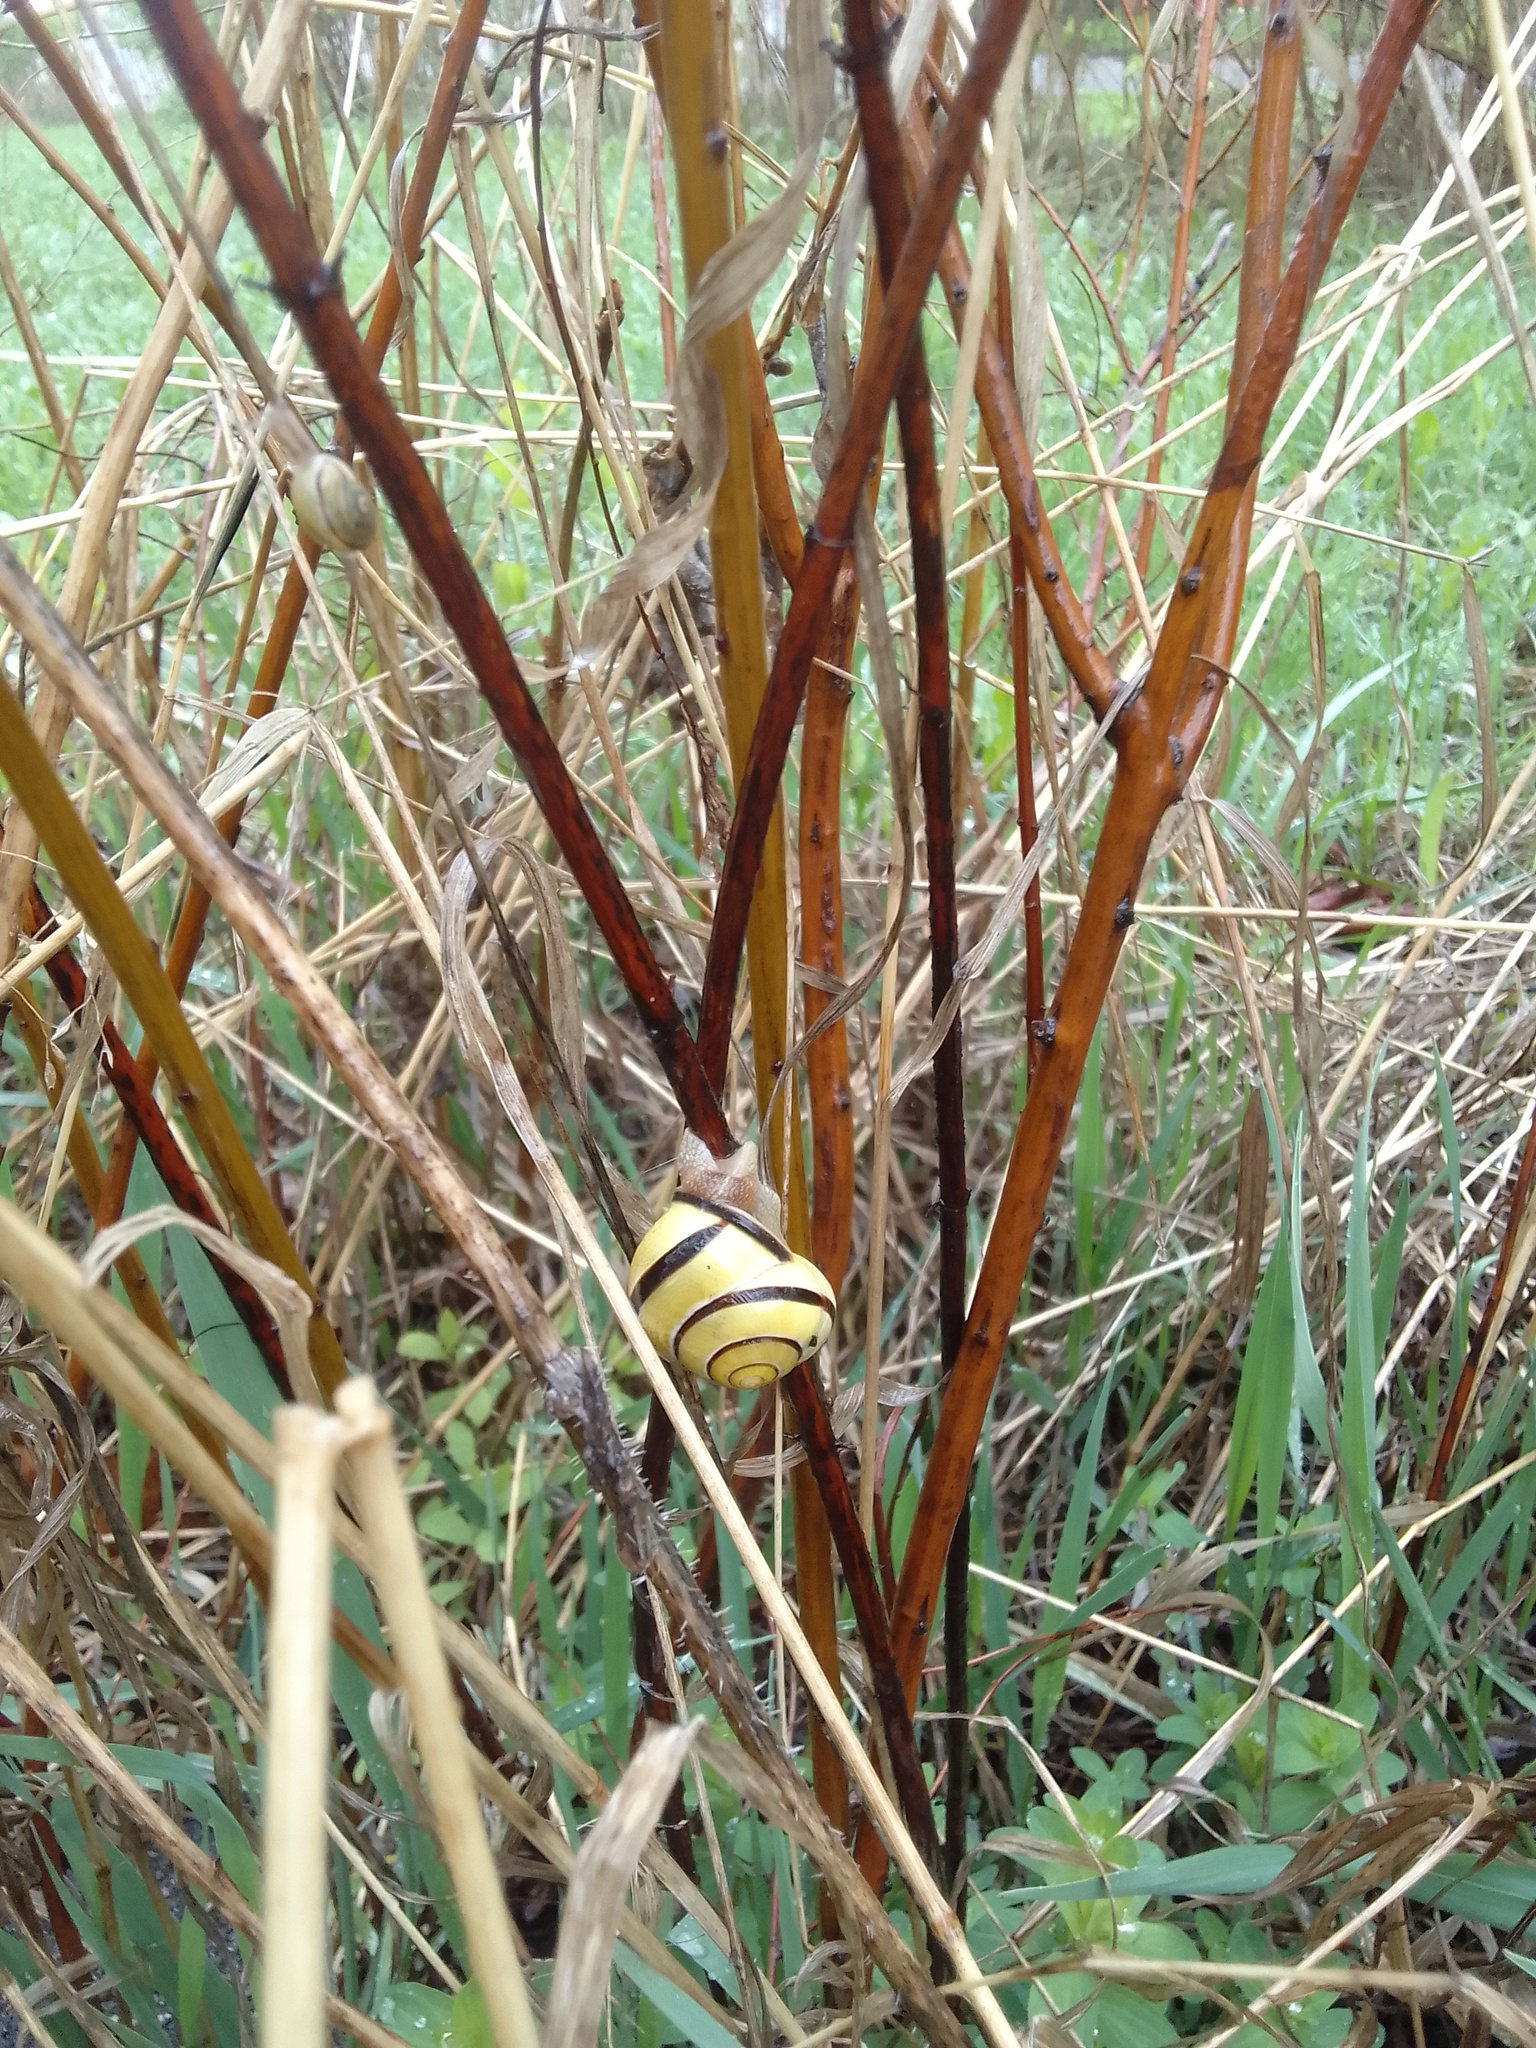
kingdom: Animalia
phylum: Mollusca
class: Gastropoda
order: Stylommatophora
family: Helicidae
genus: Cepaea
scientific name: Cepaea nemoralis
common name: Grovesnail
